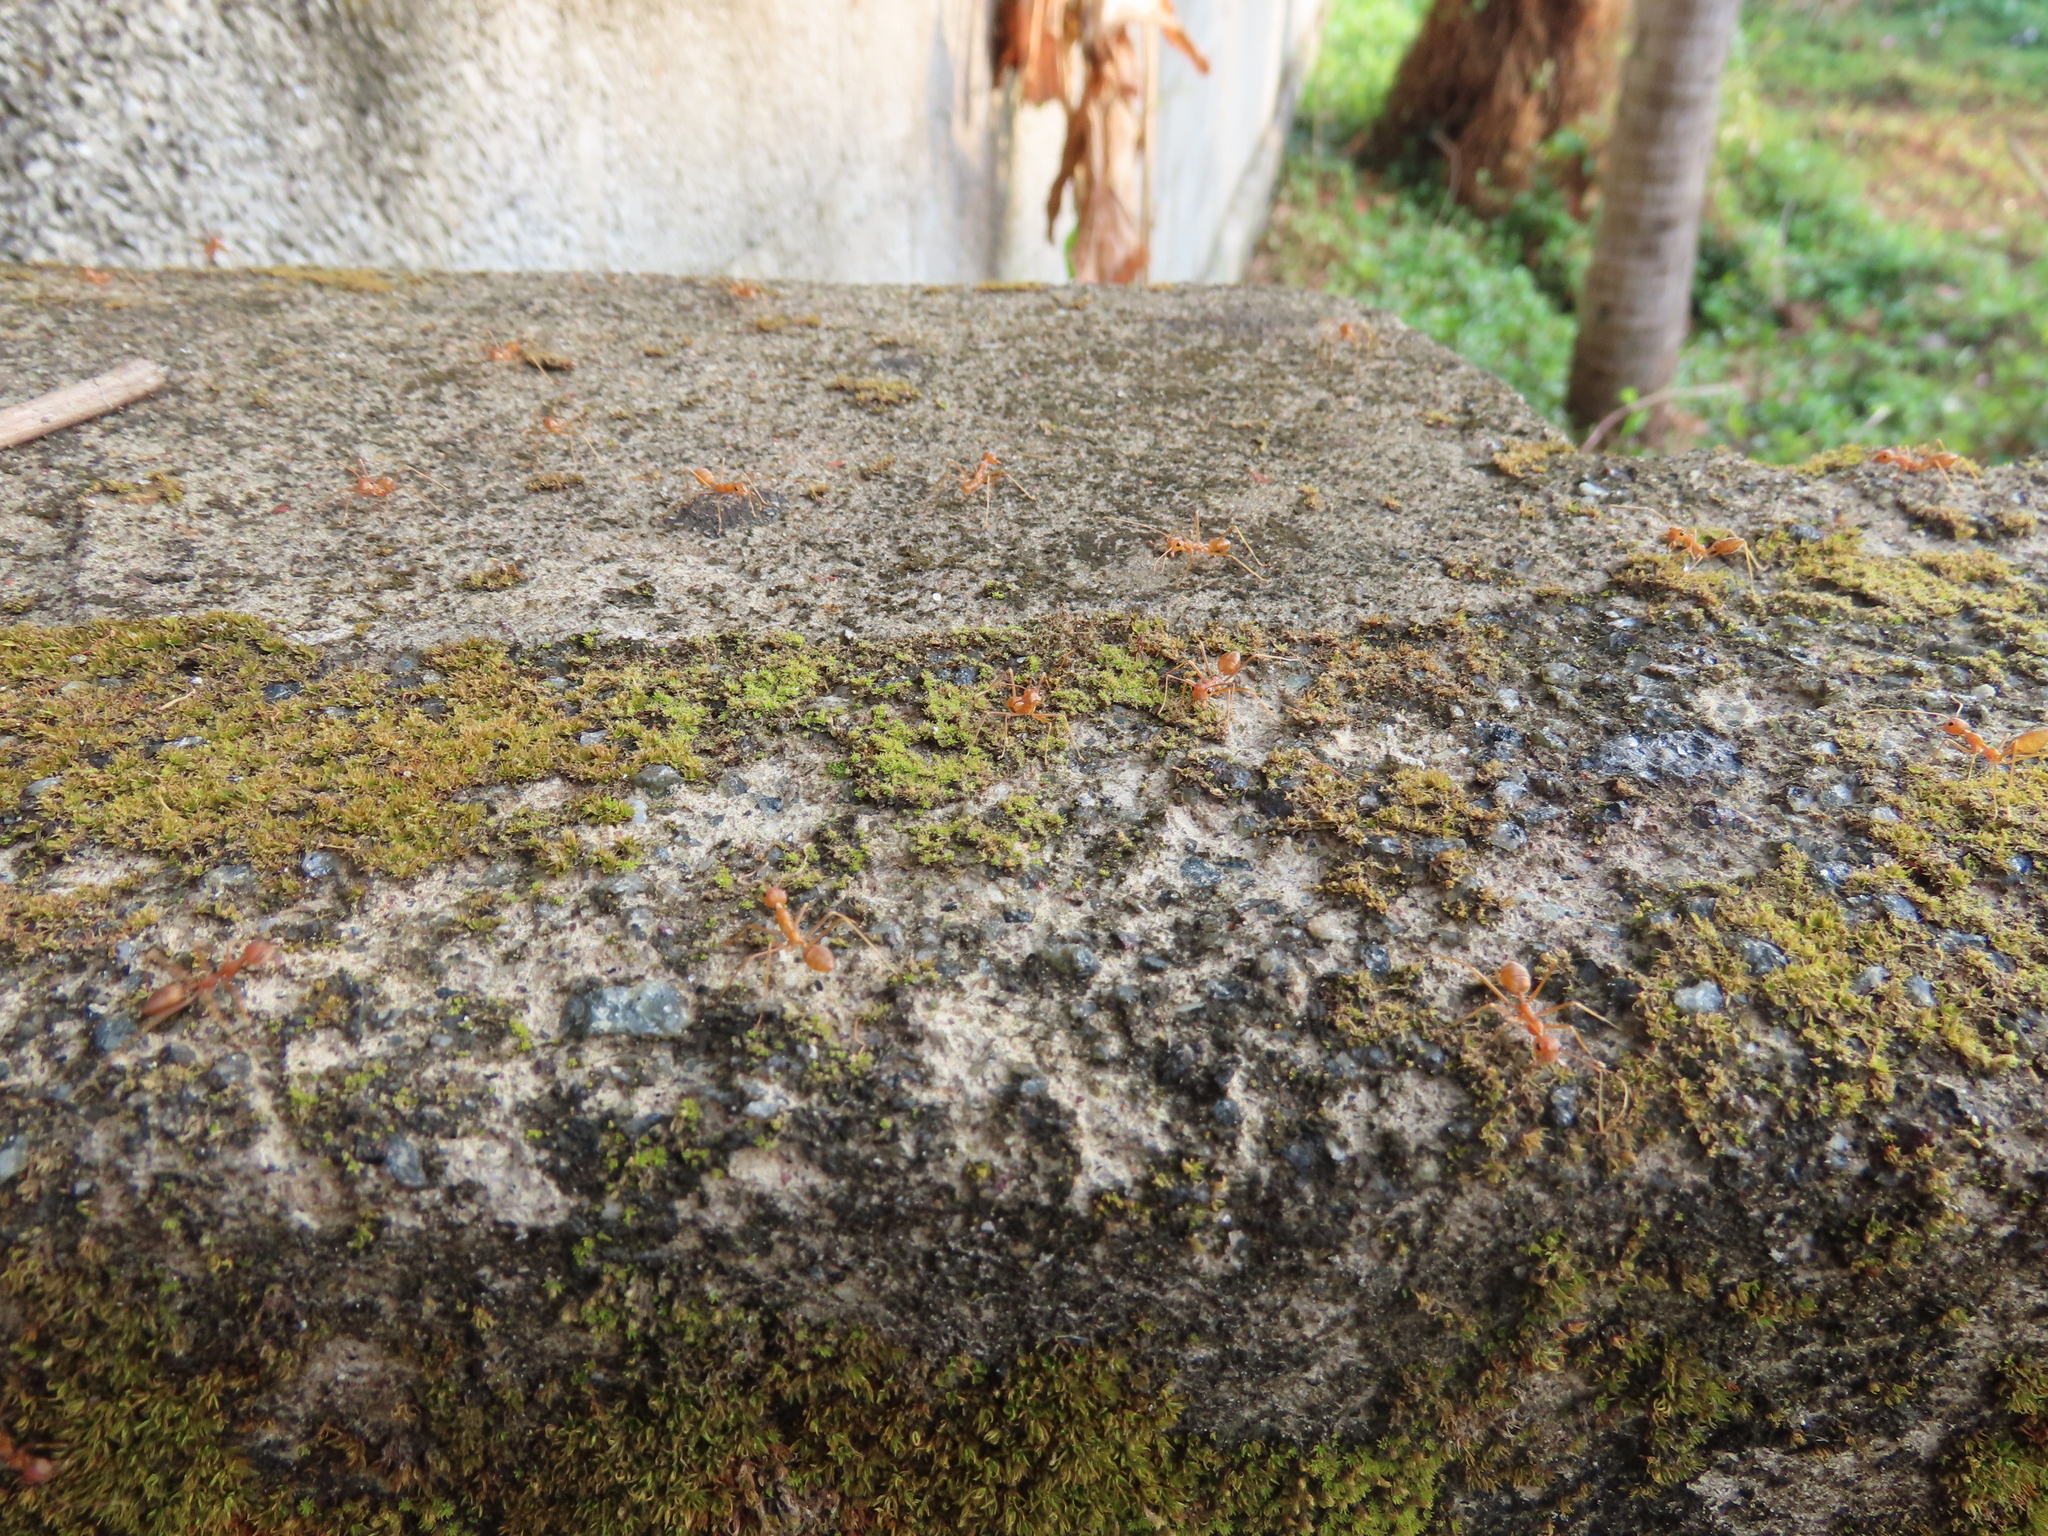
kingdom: Animalia
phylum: Arthropoda
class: Insecta
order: Hymenoptera
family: Formicidae
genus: Oecophylla
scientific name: Oecophylla smaragdina
